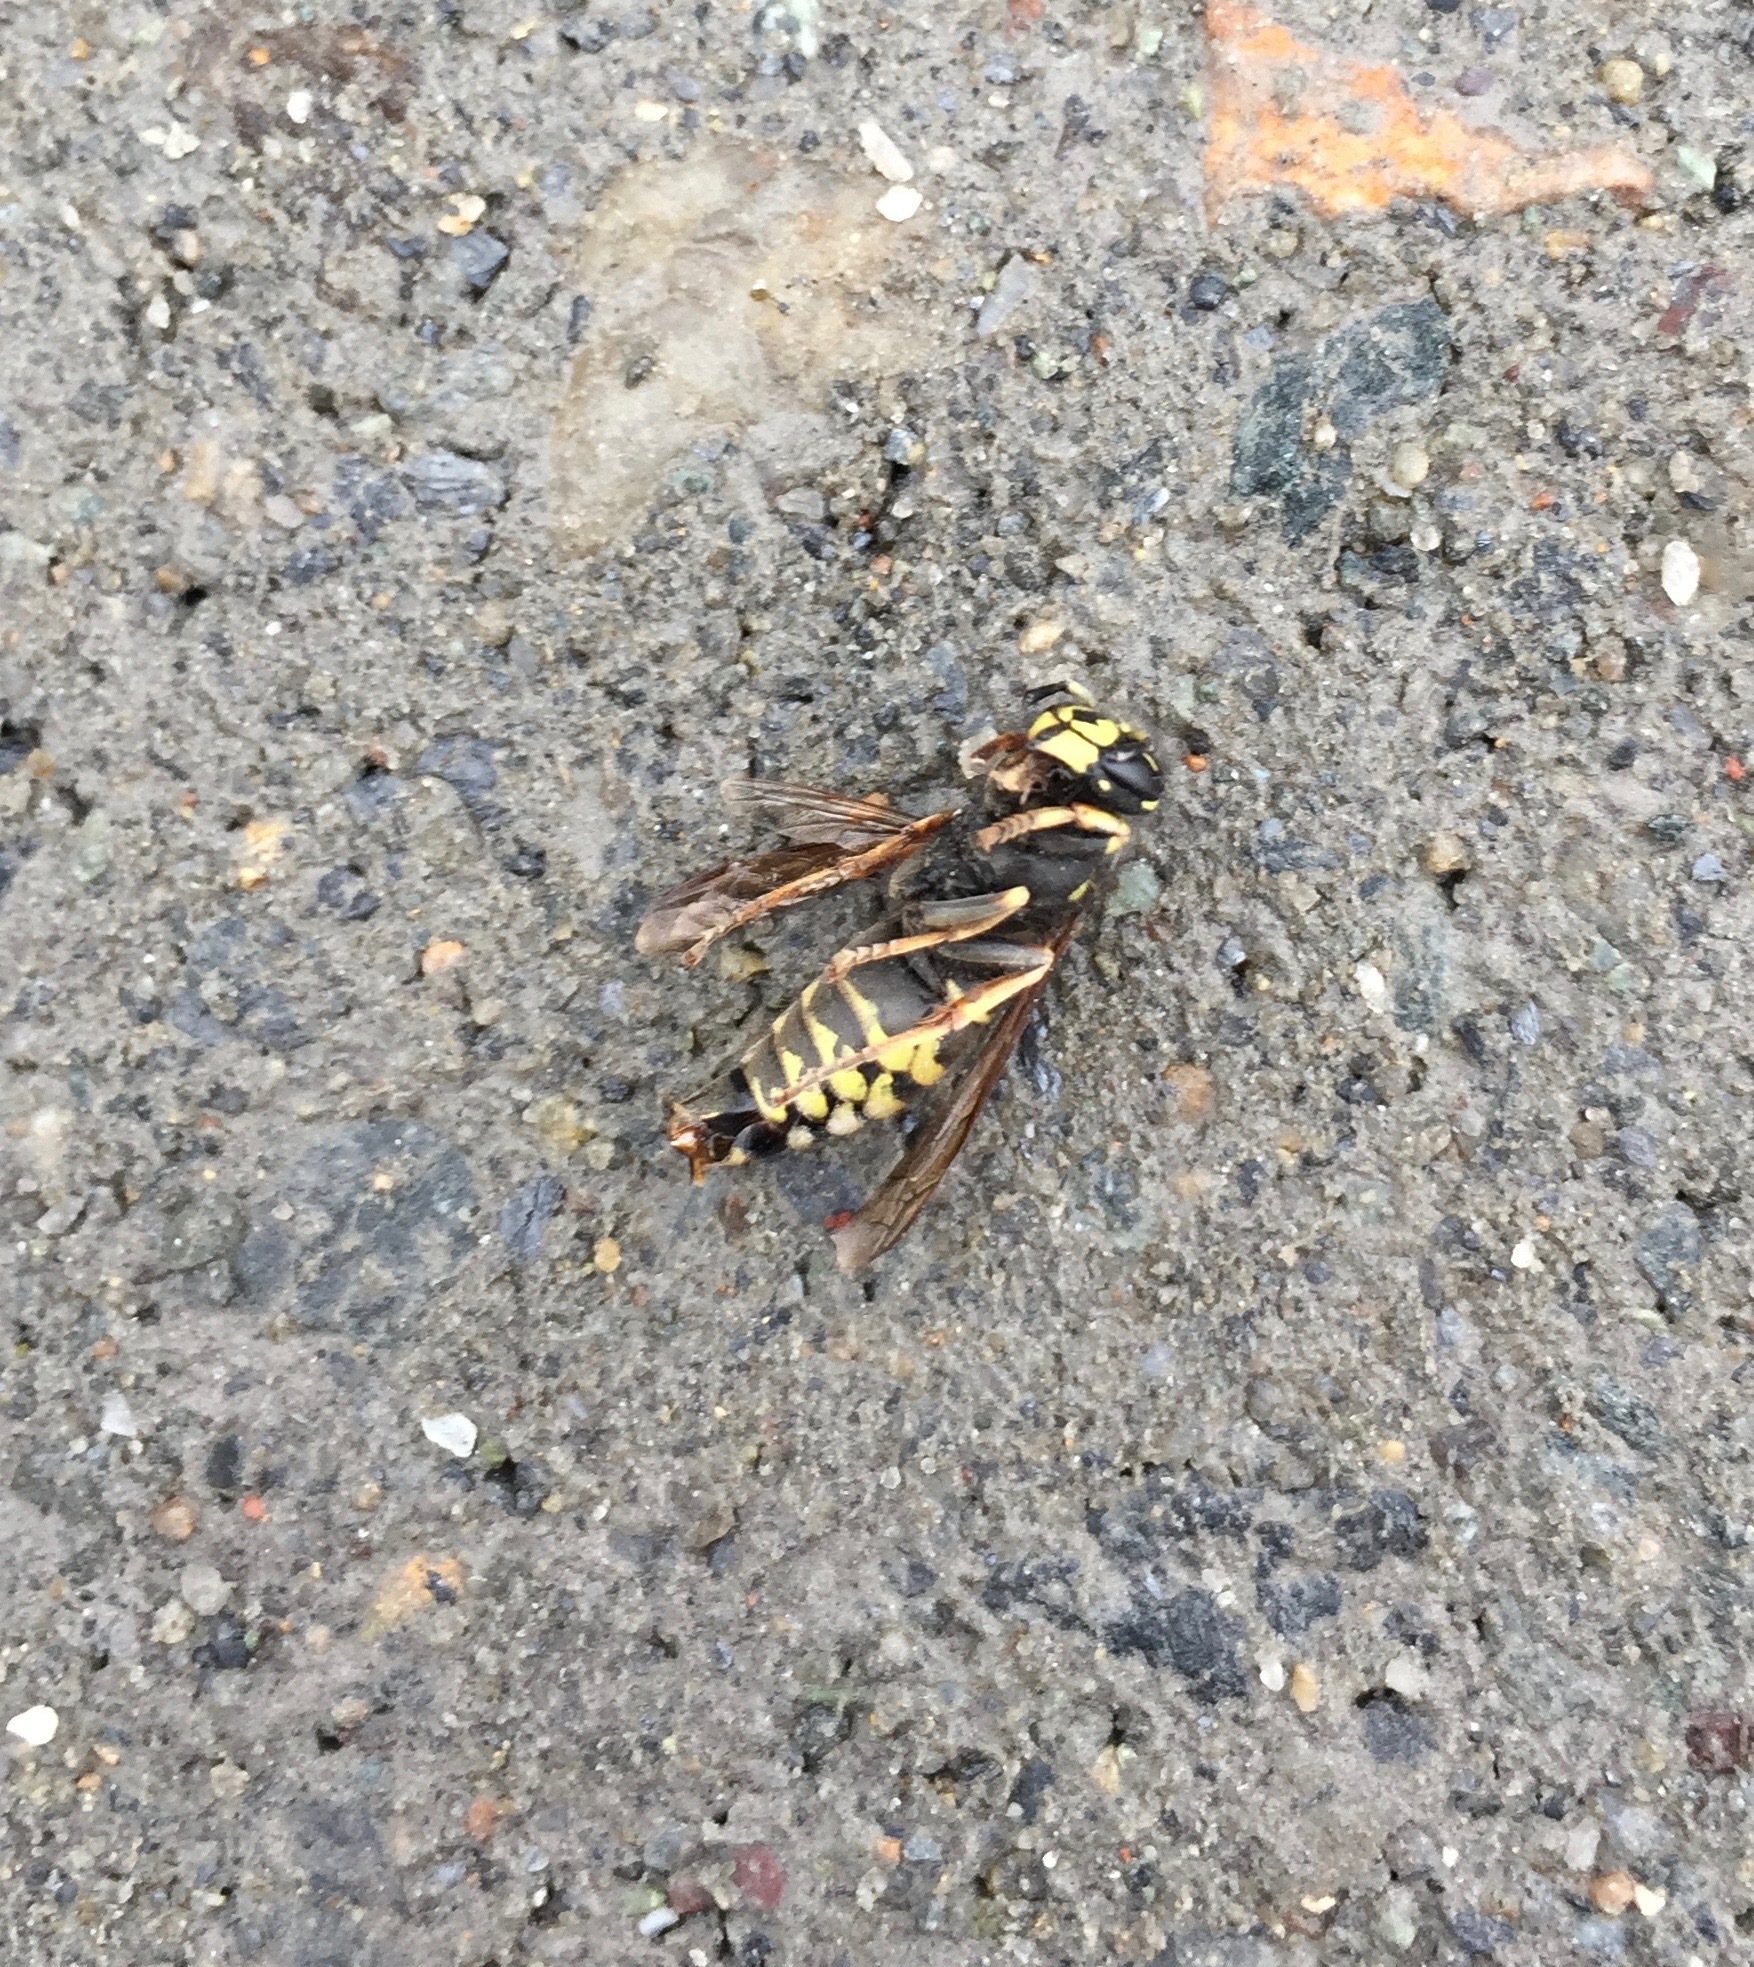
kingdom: Animalia
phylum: Arthropoda
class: Insecta
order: Hymenoptera
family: Vespidae
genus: Vespula
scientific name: Vespula acadica
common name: Forest yellowjacket
